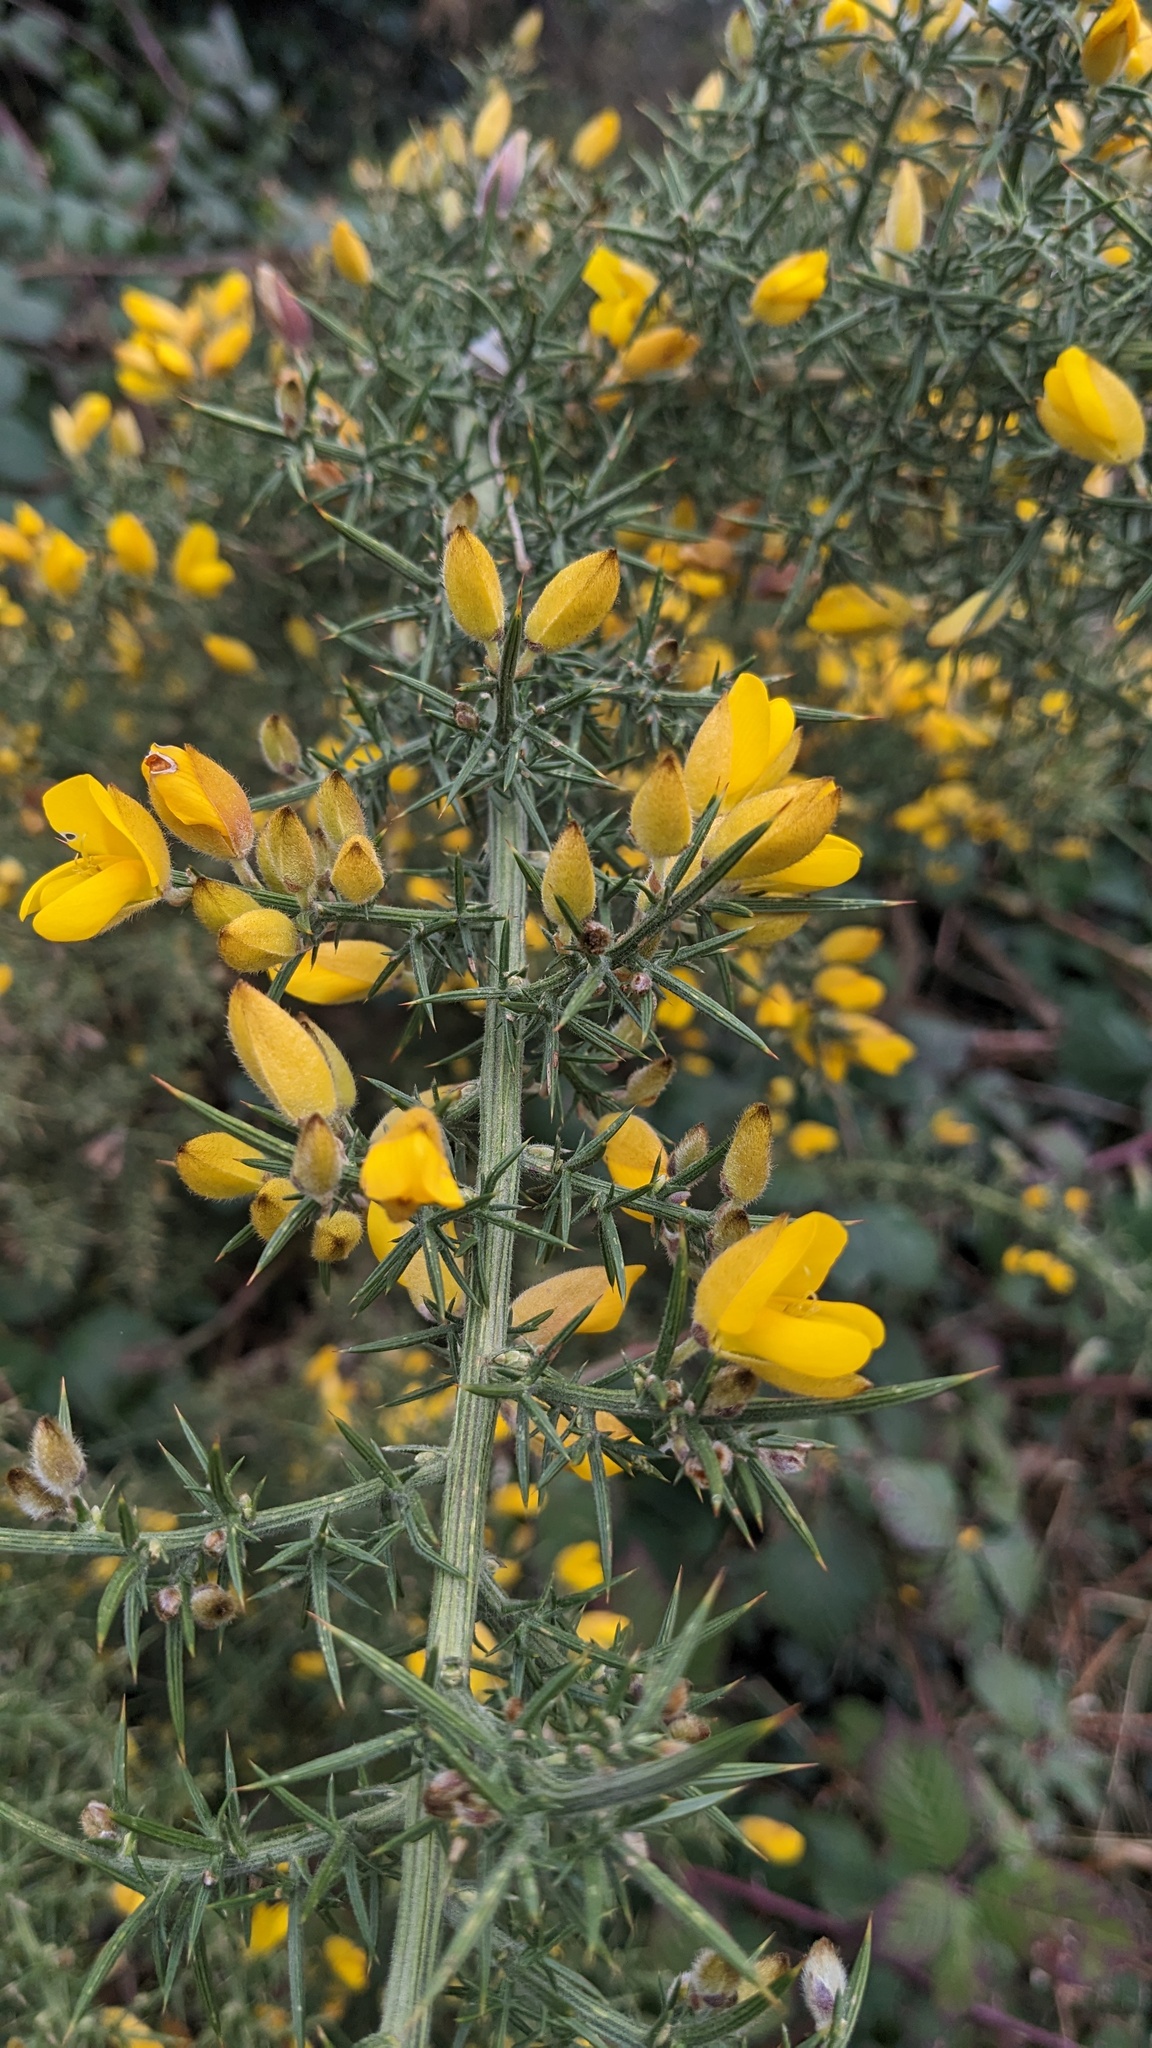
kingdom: Plantae
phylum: Tracheophyta
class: Magnoliopsida
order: Fabales
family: Fabaceae
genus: Ulex
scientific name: Ulex europaeus
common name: Common gorse
